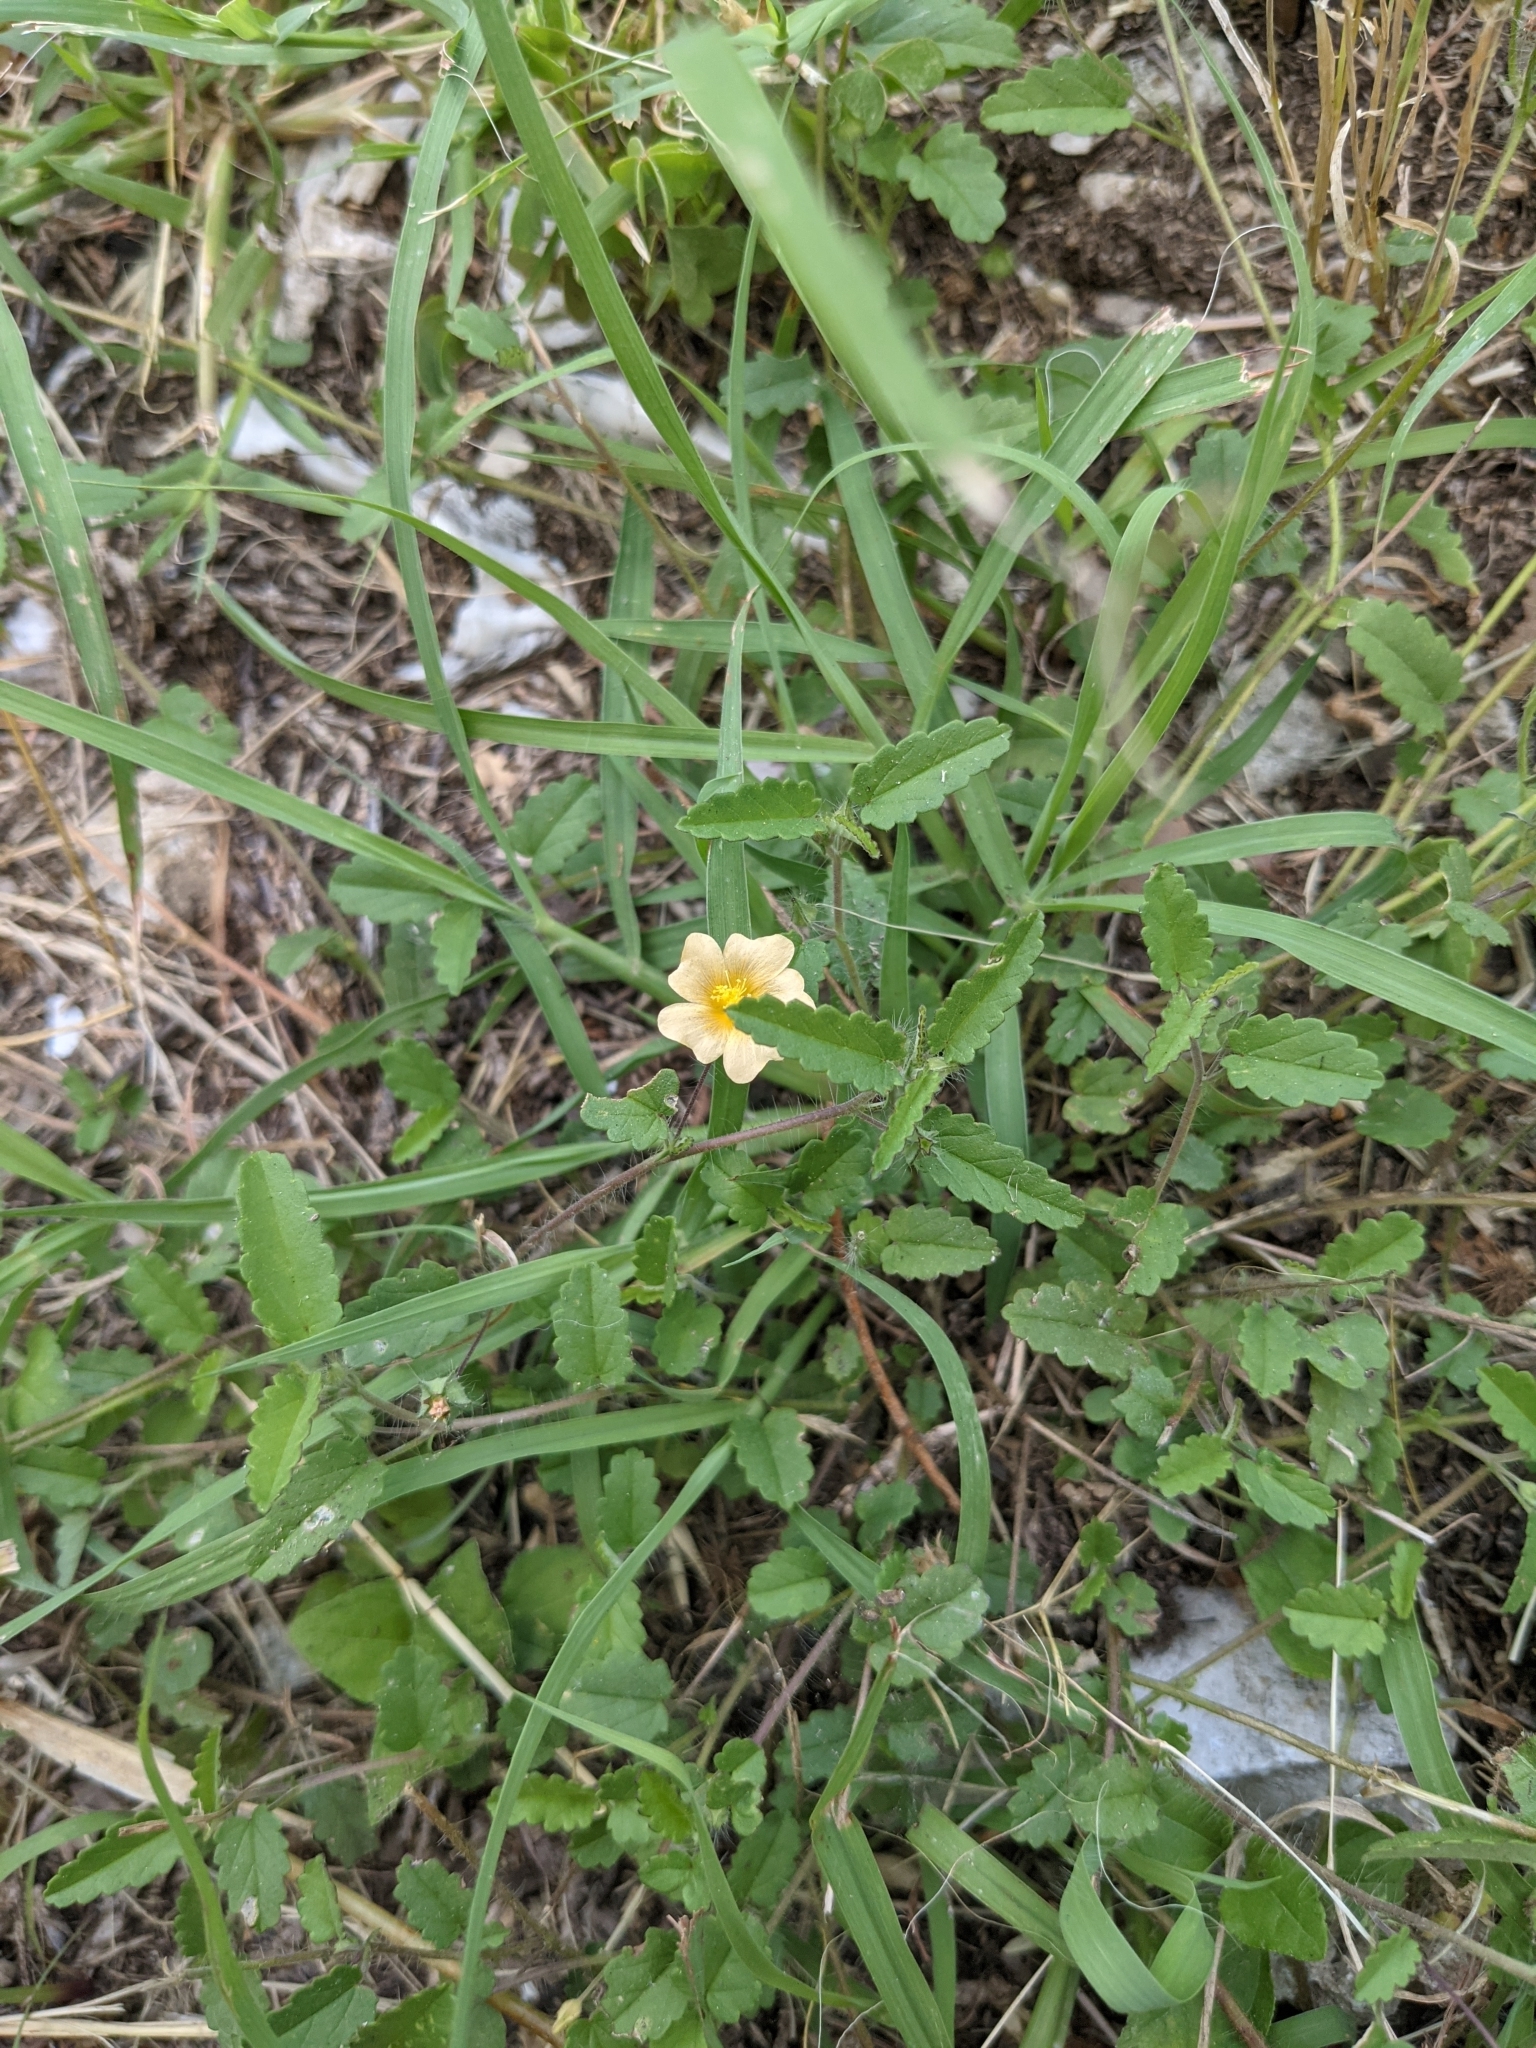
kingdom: Plantae
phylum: Tracheophyta
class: Magnoliopsida
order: Malvales
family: Malvaceae
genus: Sida
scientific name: Sida abutilifolia
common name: Spreading fanpetals
